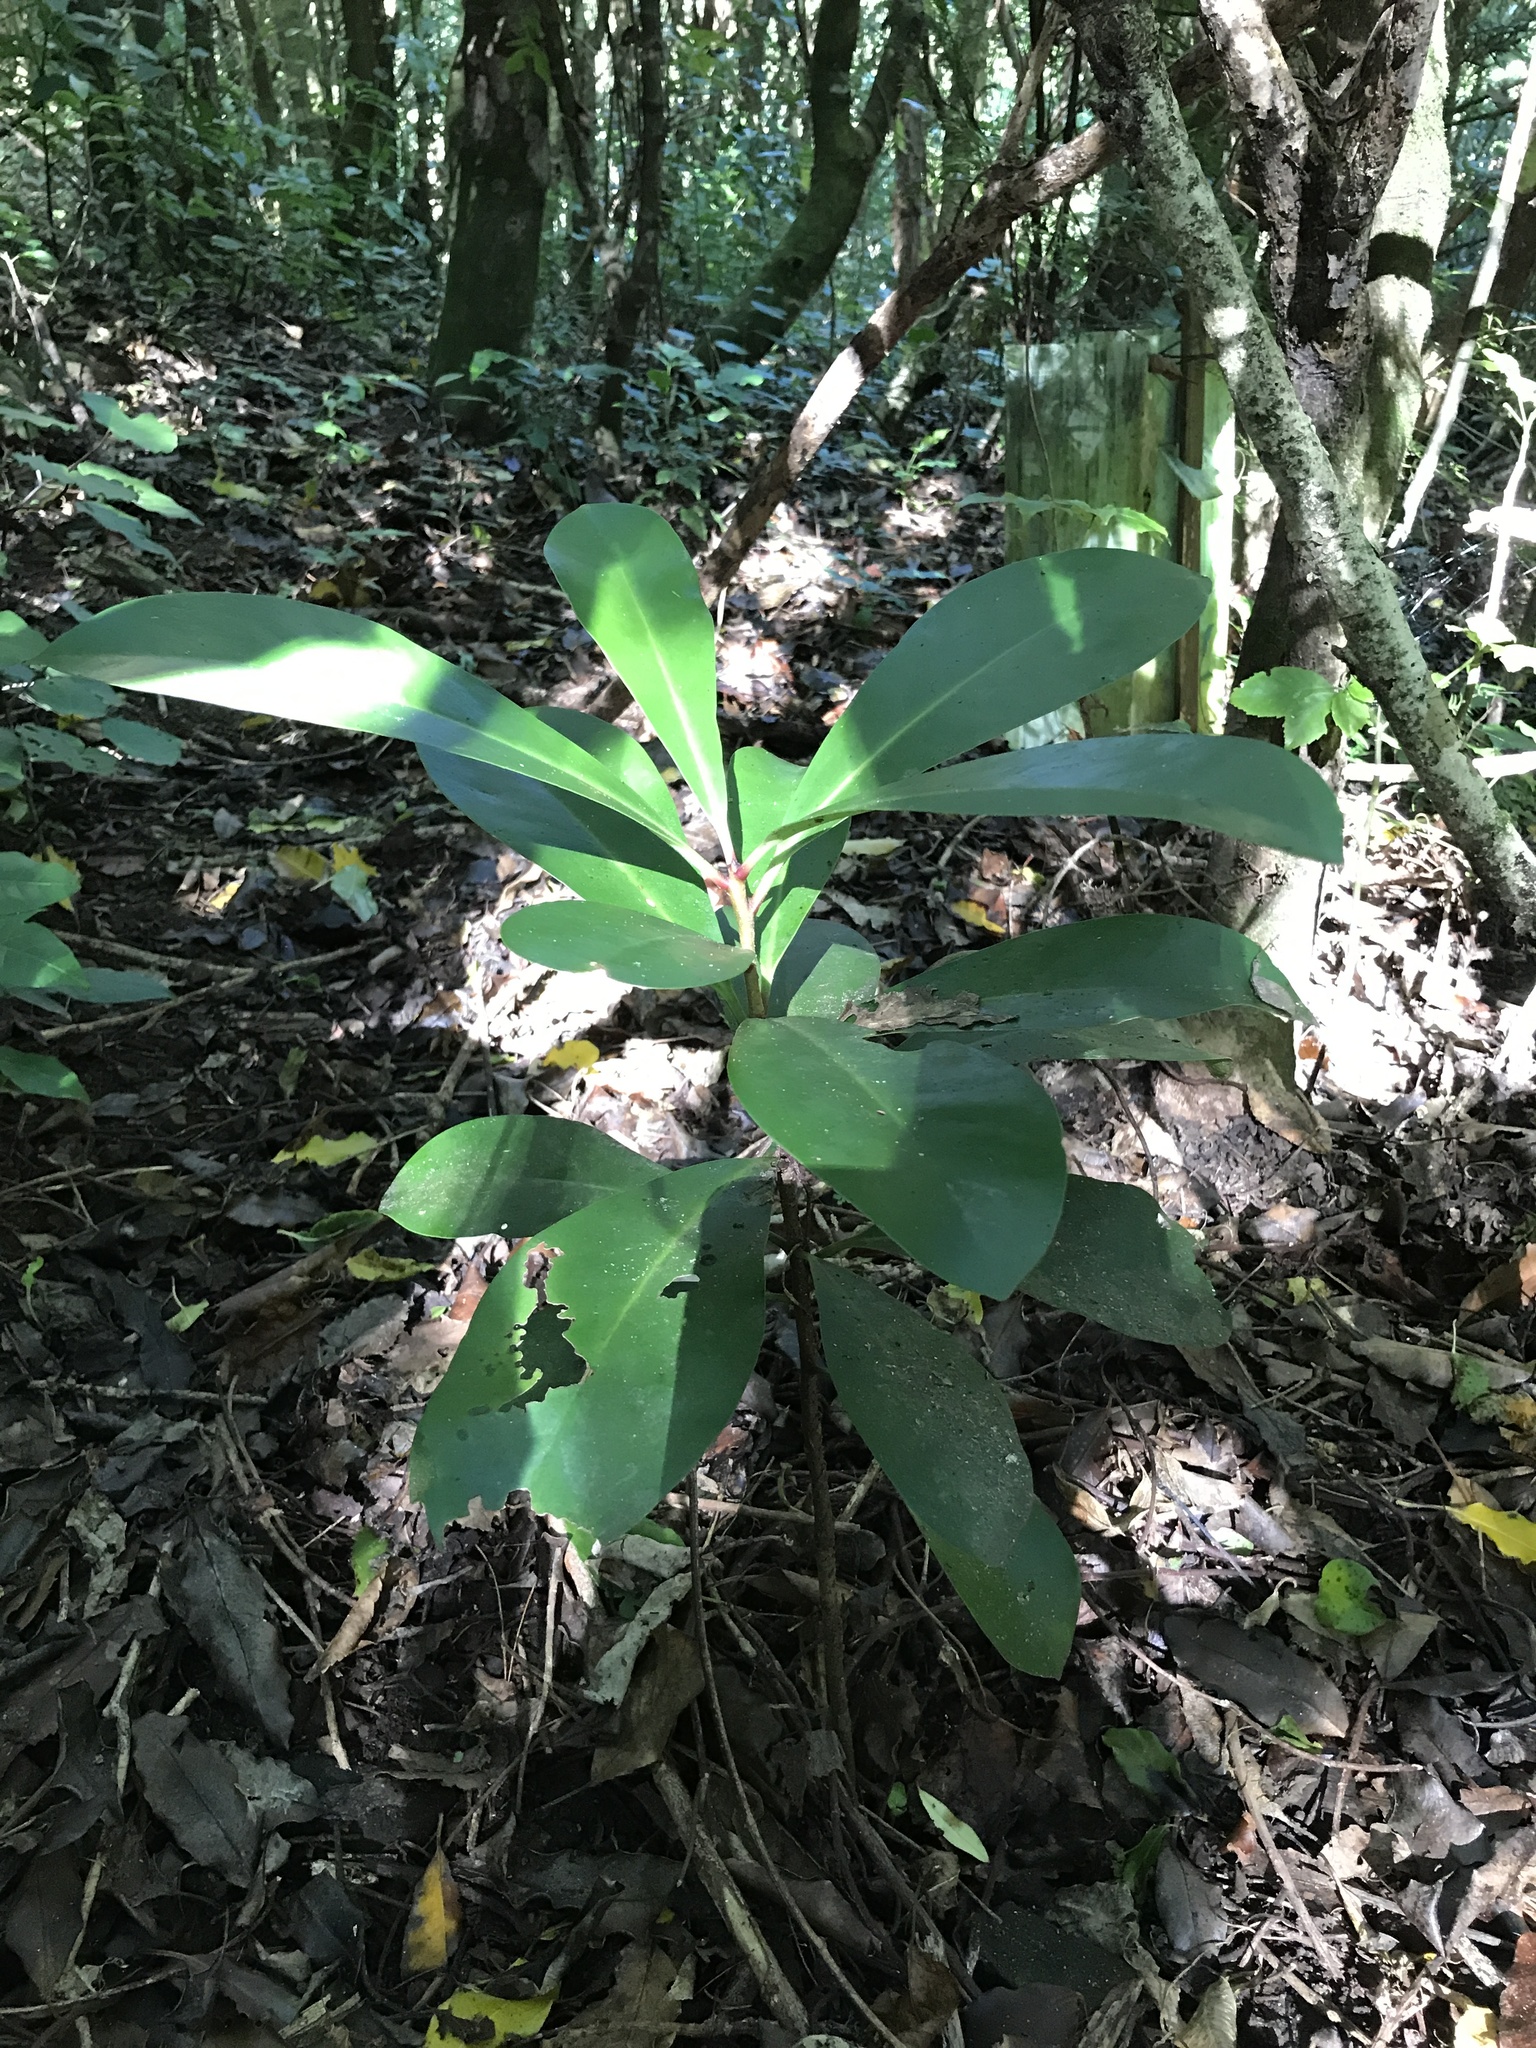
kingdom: Plantae
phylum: Tracheophyta
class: Magnoliopsida
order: Cucurbitales
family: Corynocarpaceae
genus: Corynocarpus
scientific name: Corynocarpus laevigatus
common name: New zealand laurel
